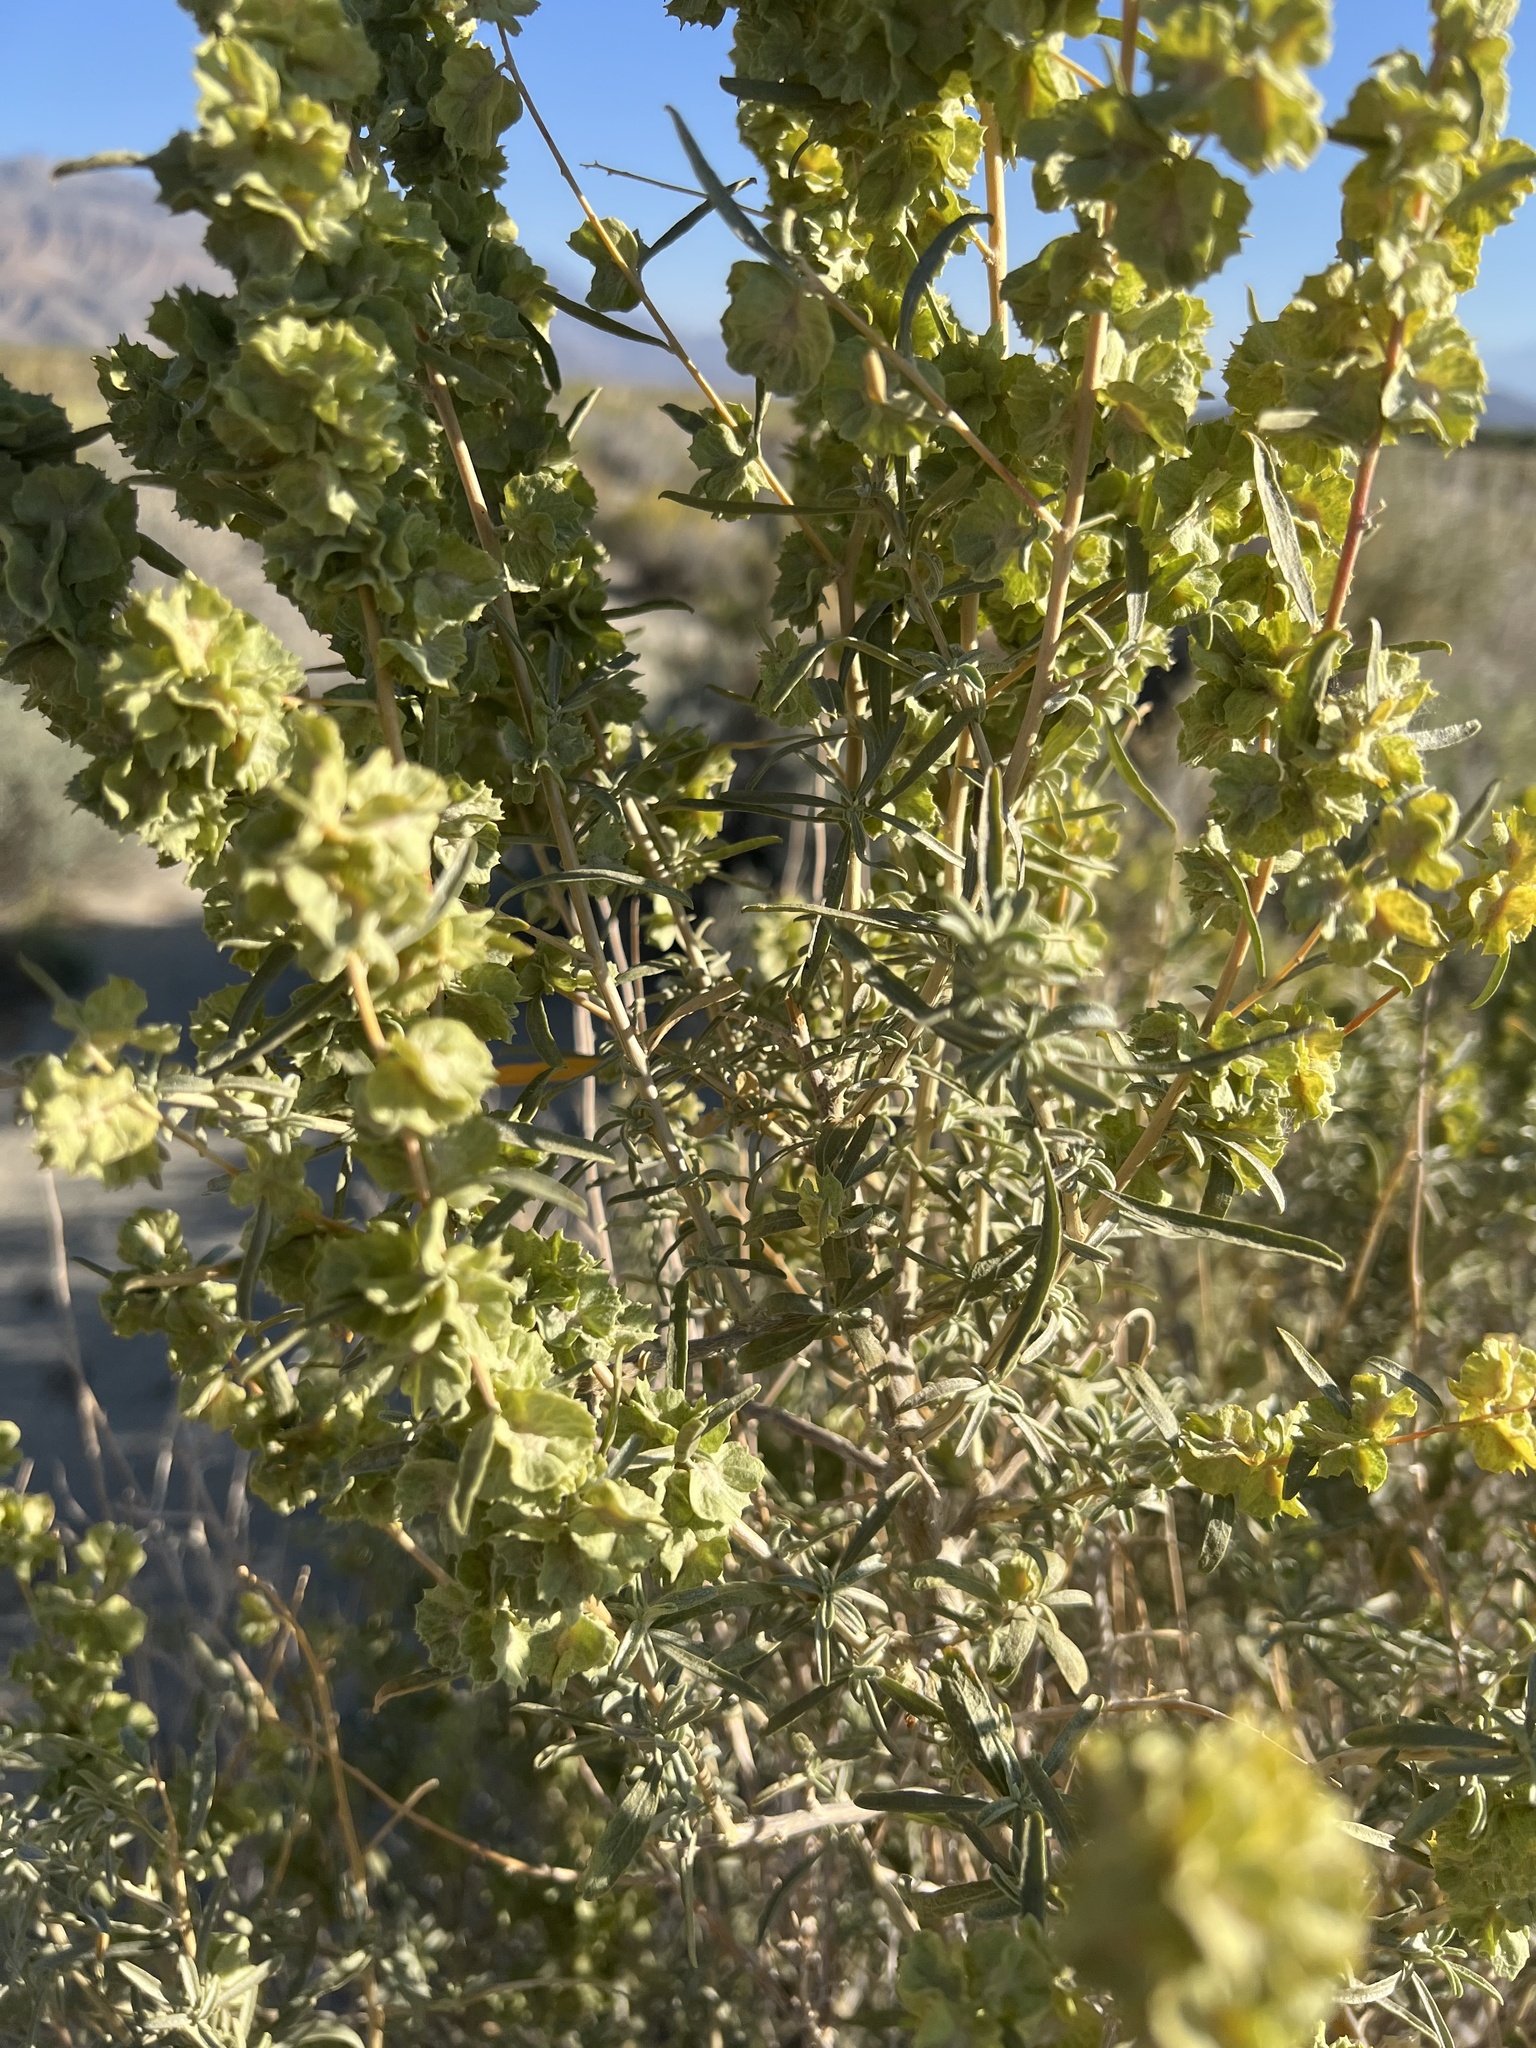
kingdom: Plantae
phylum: Tracheophyta
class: Magnoliopsida
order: Caryophyllales
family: Amaranthaceae
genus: Atriplex
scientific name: Atriplex canescens
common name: Four-wing saltbush
